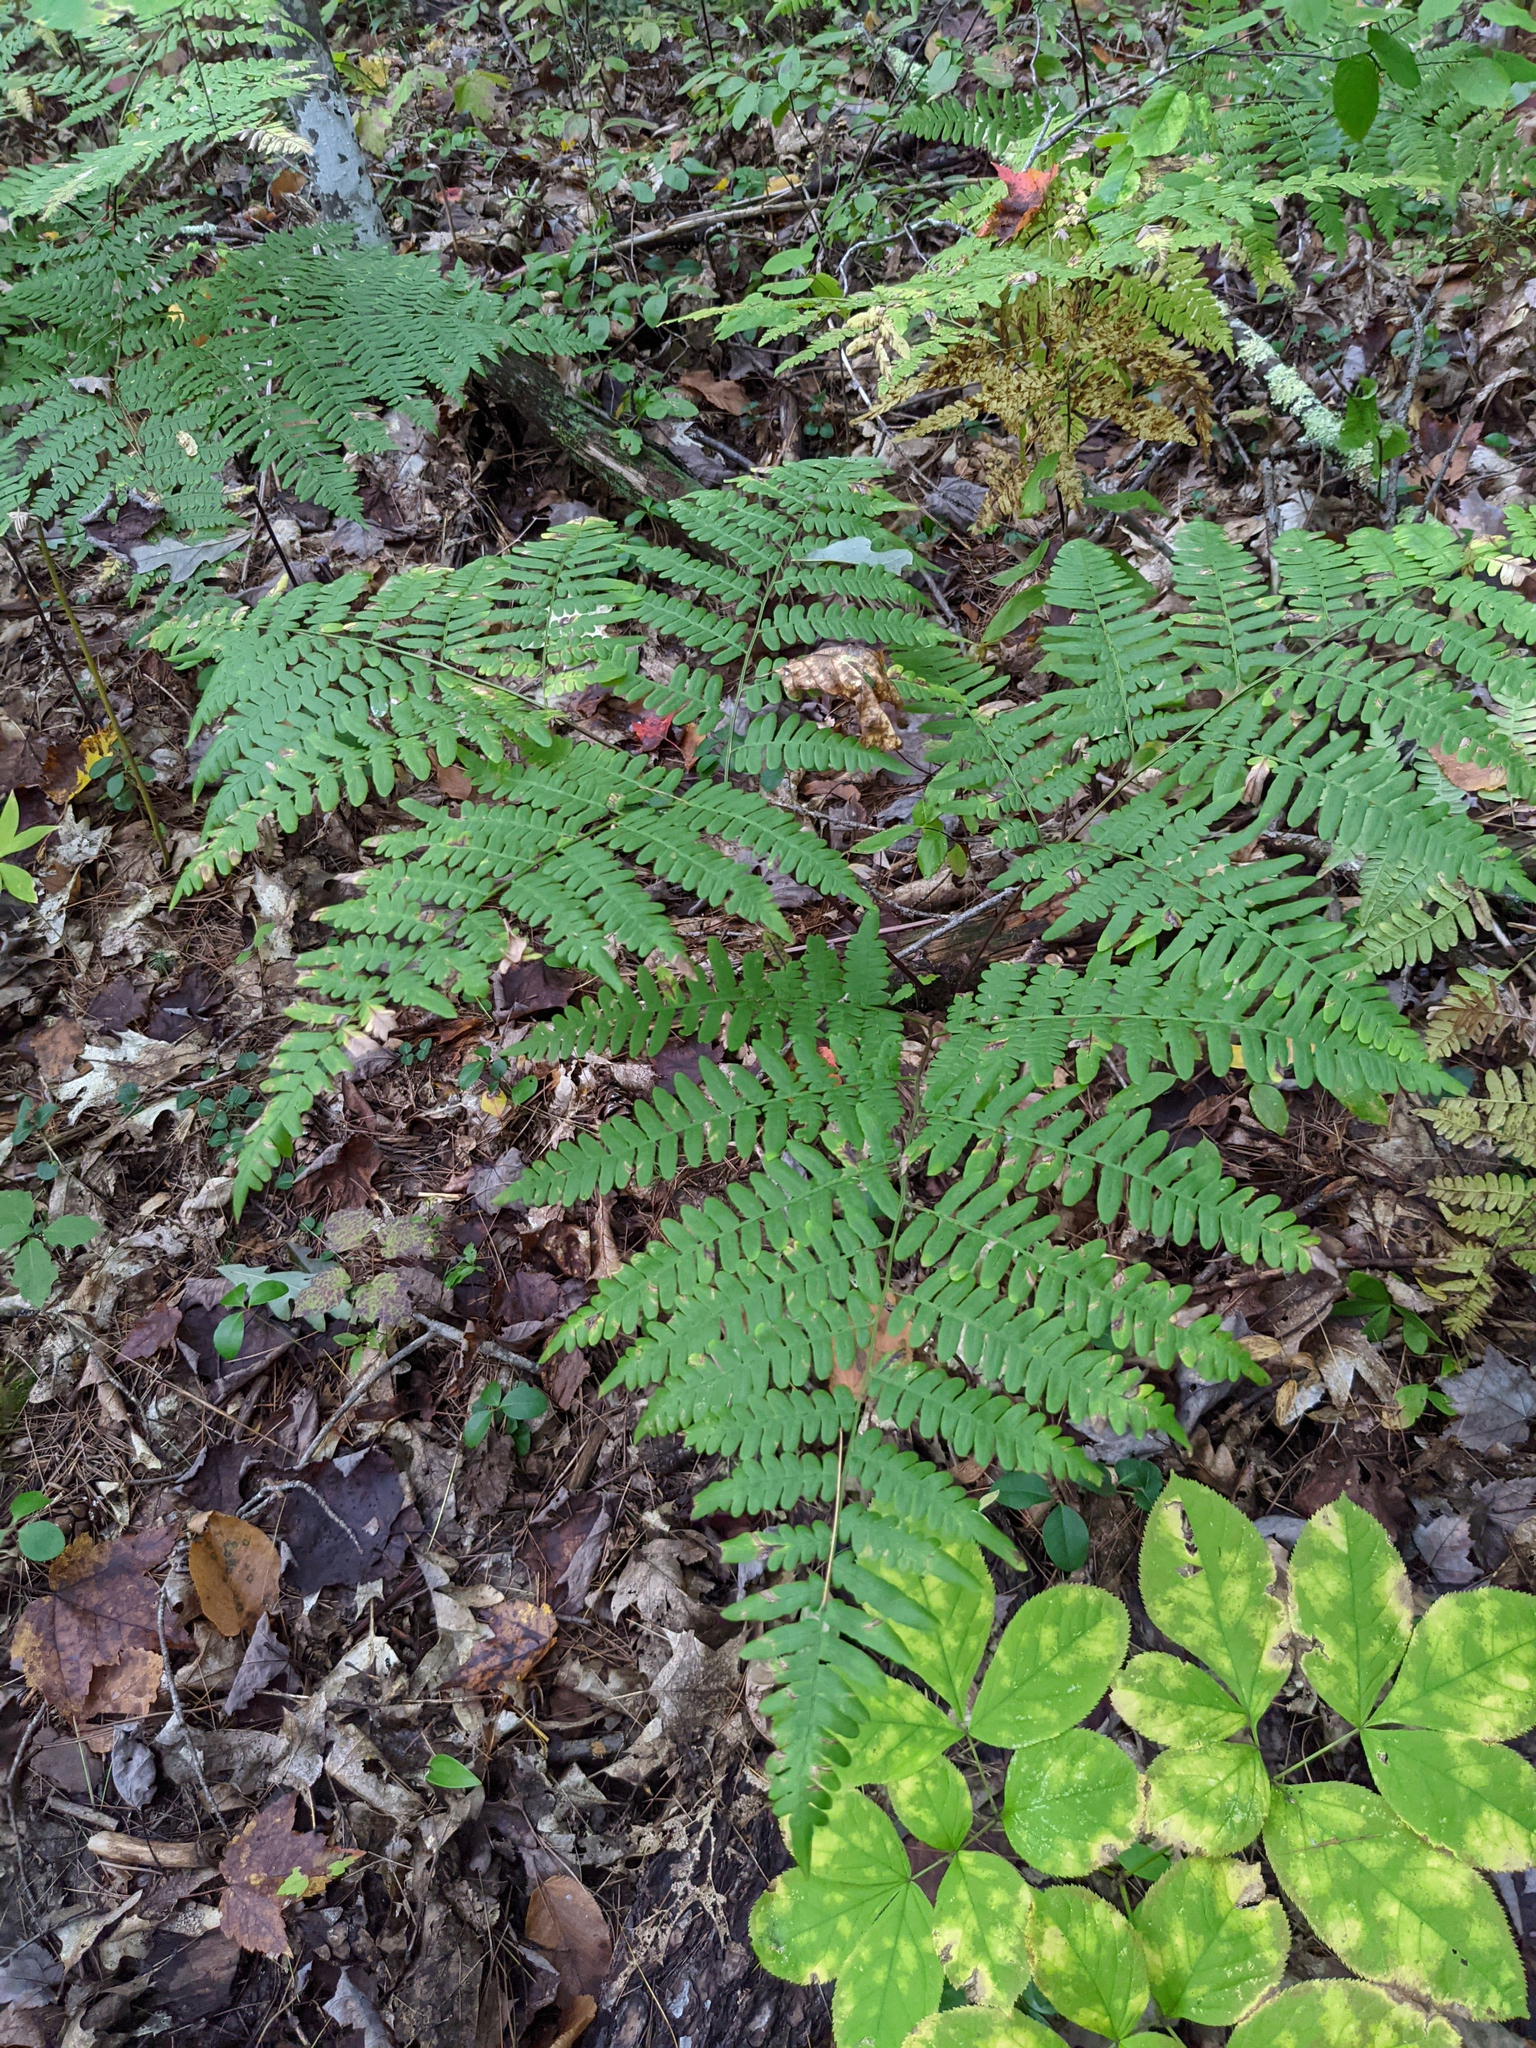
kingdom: Plantae
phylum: Tracheophyta
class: Polypodiopsida
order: Polypodiales
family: Dennstaedtiaceae
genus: Pteridium
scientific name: Pteridium aquilinum
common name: Bracken
